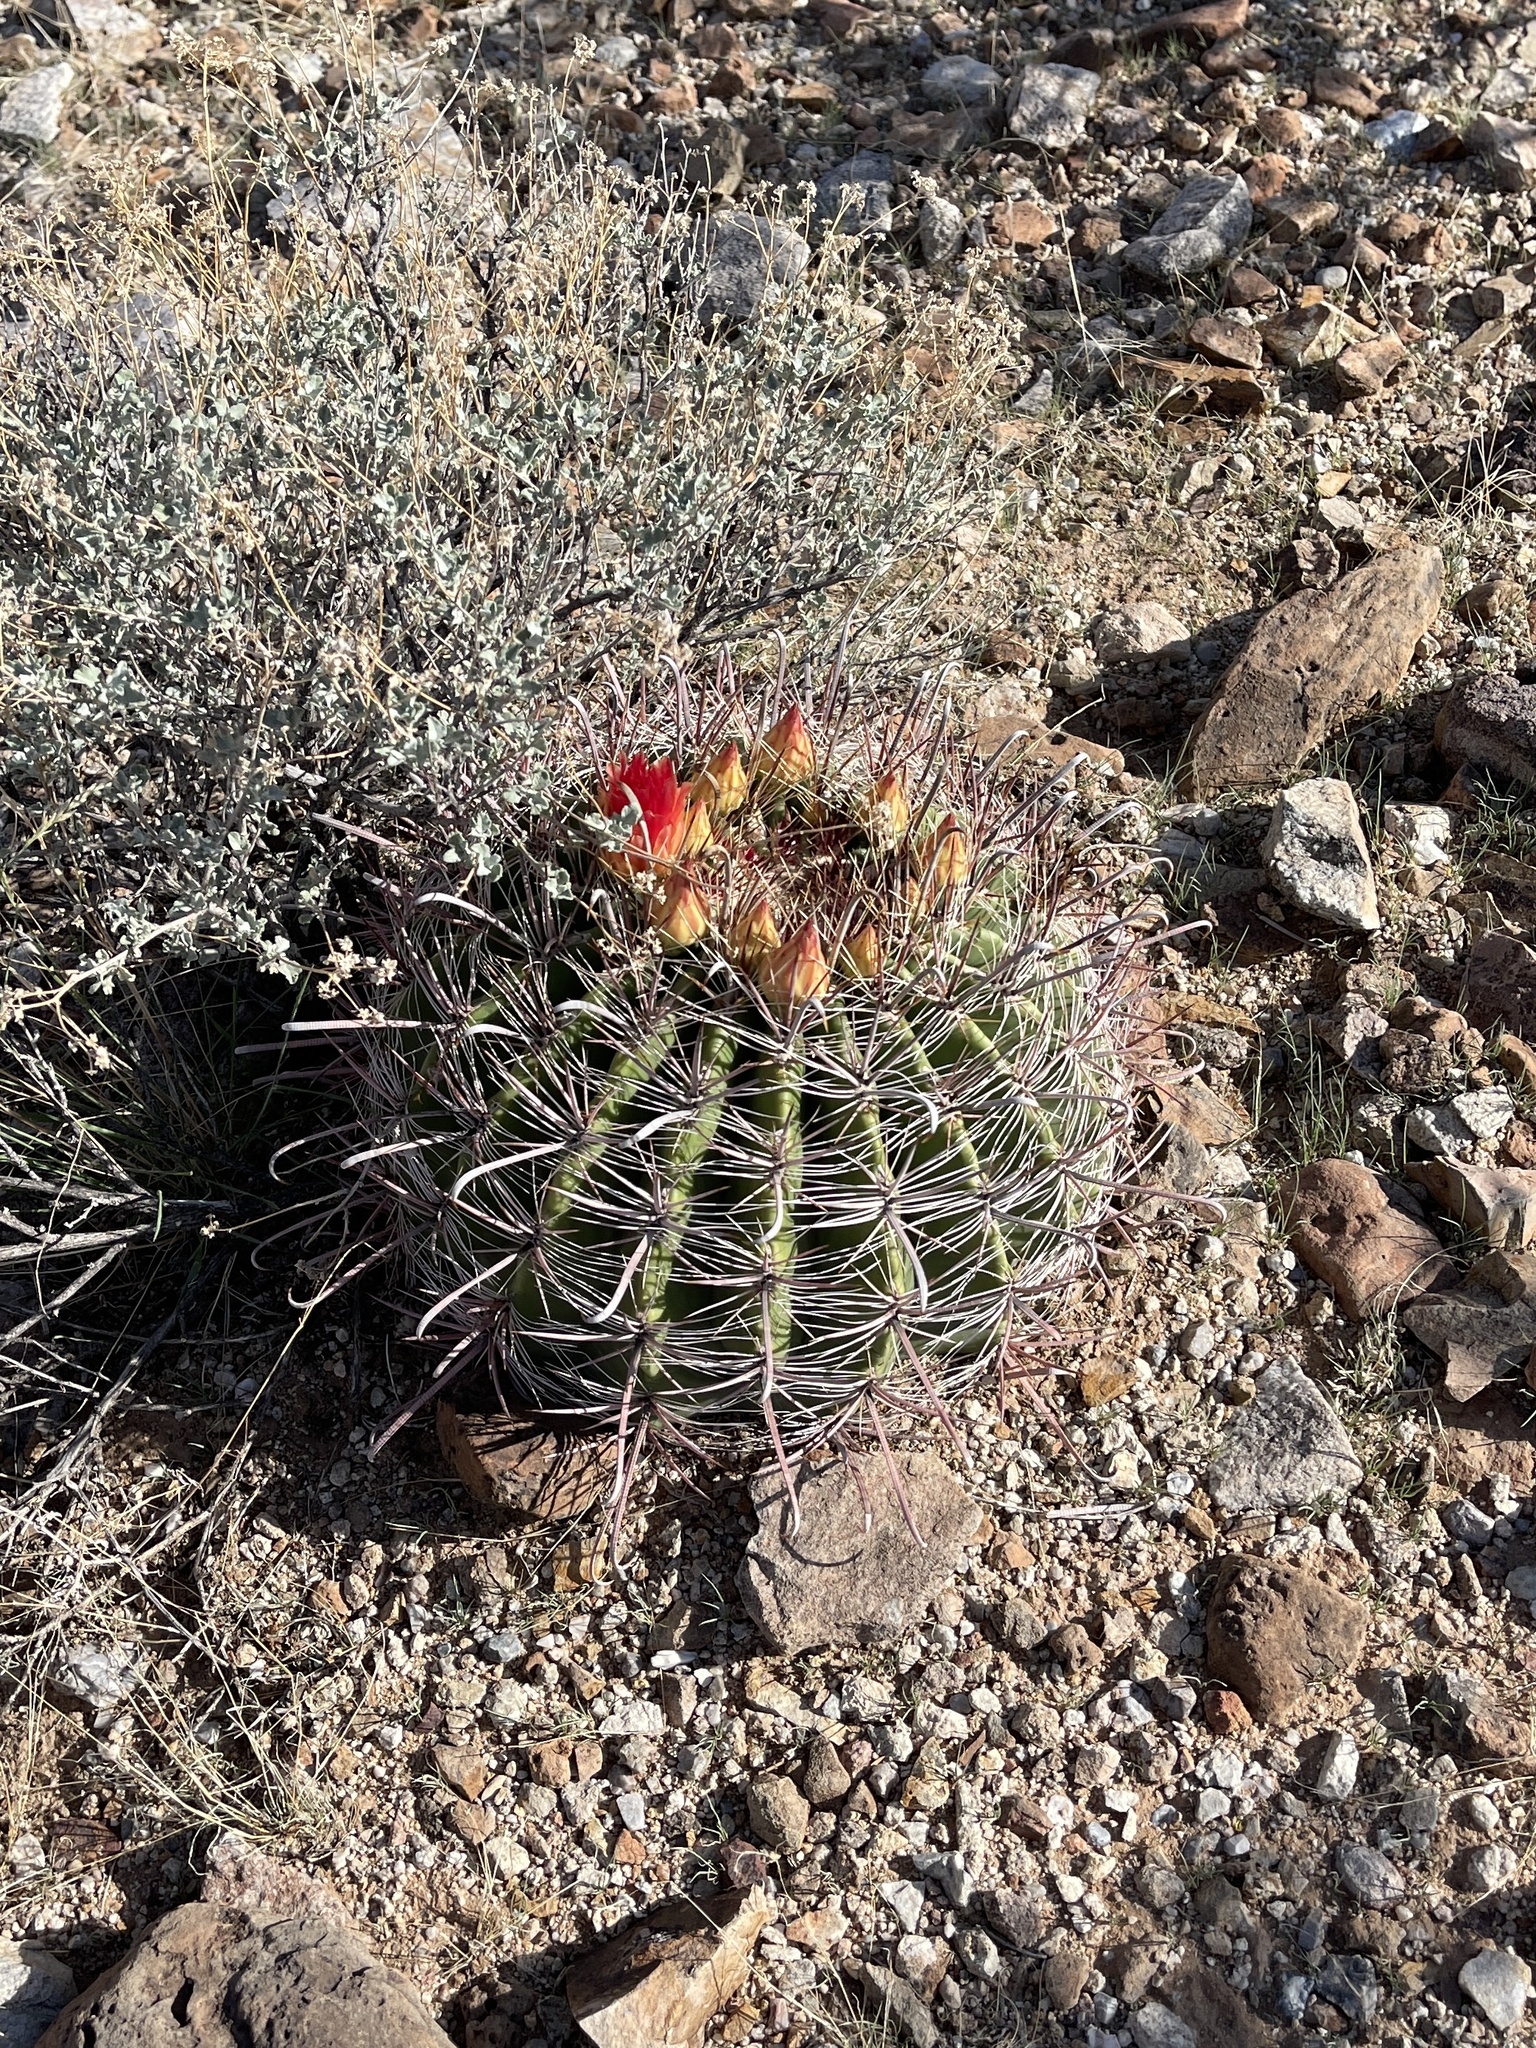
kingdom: Plantae
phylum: Tracheophyta
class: Magnoliopsida
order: Caryophyllales
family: Cactaceae
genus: Ferocactus
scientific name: Ferocactus wislizeni
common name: Candy barrel cactus
